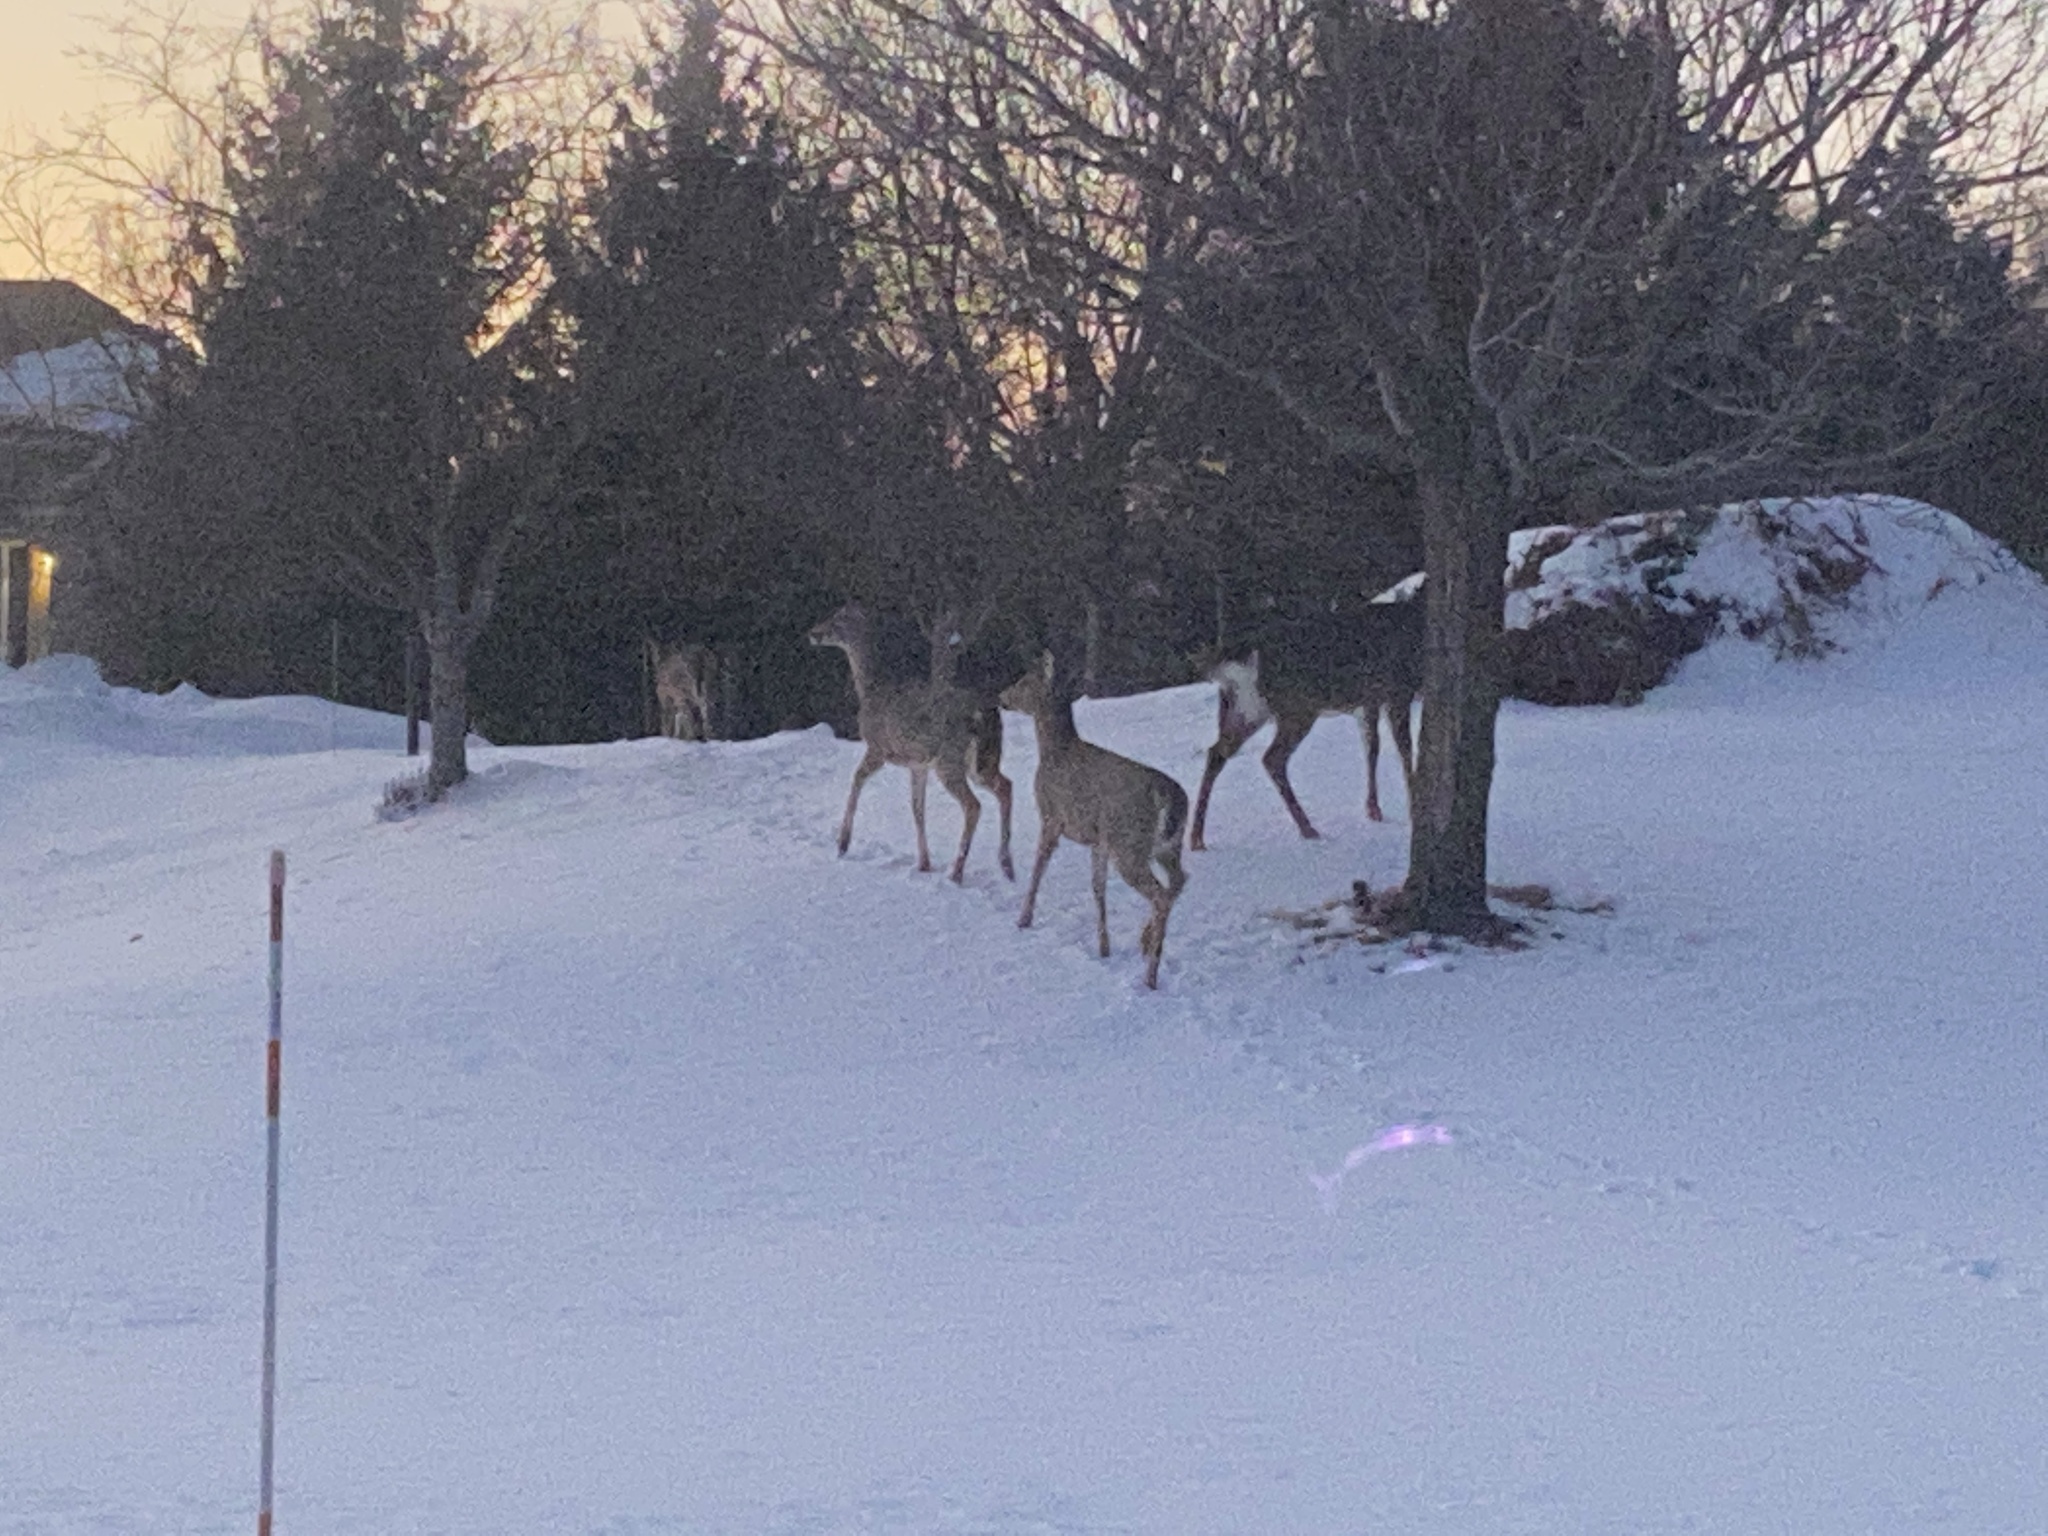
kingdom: Animalia
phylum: Chordata
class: Mammalia
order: Artiodactyla
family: Cervidae
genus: Odocoileus
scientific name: Odocoileus virginianus
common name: White-tailed deer
